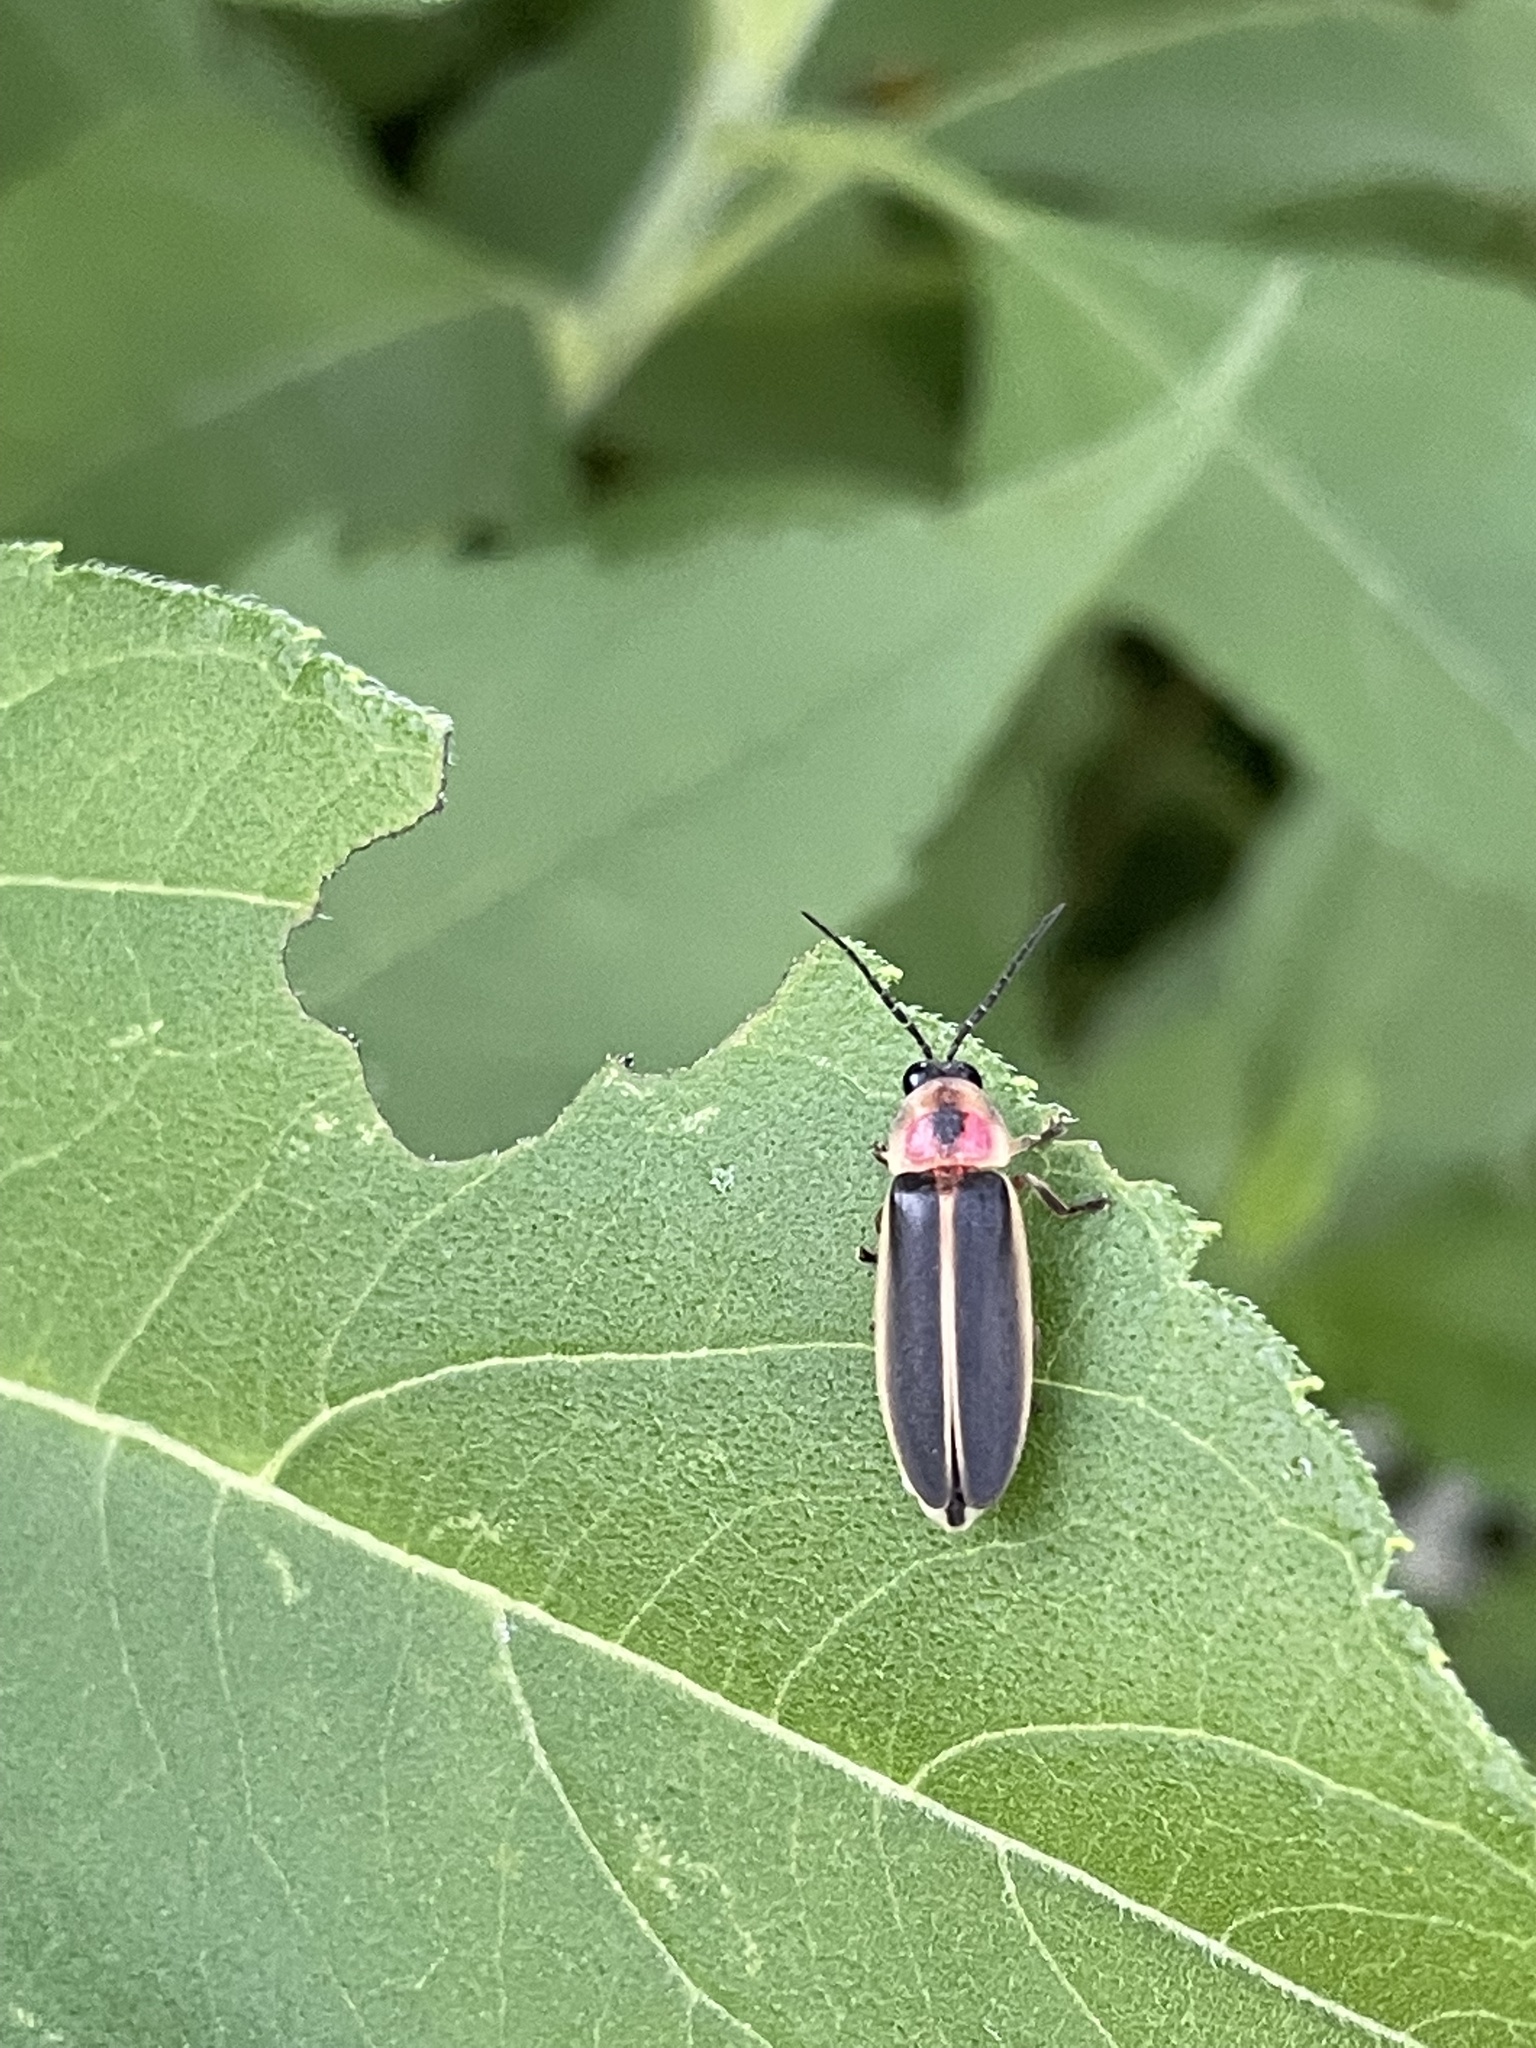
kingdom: Animalia
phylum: Arthropoda
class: Insecta
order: Coleoptera
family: Lampyridae
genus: Photinus
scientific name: Photinus pyralis
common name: Big dipper firefly
